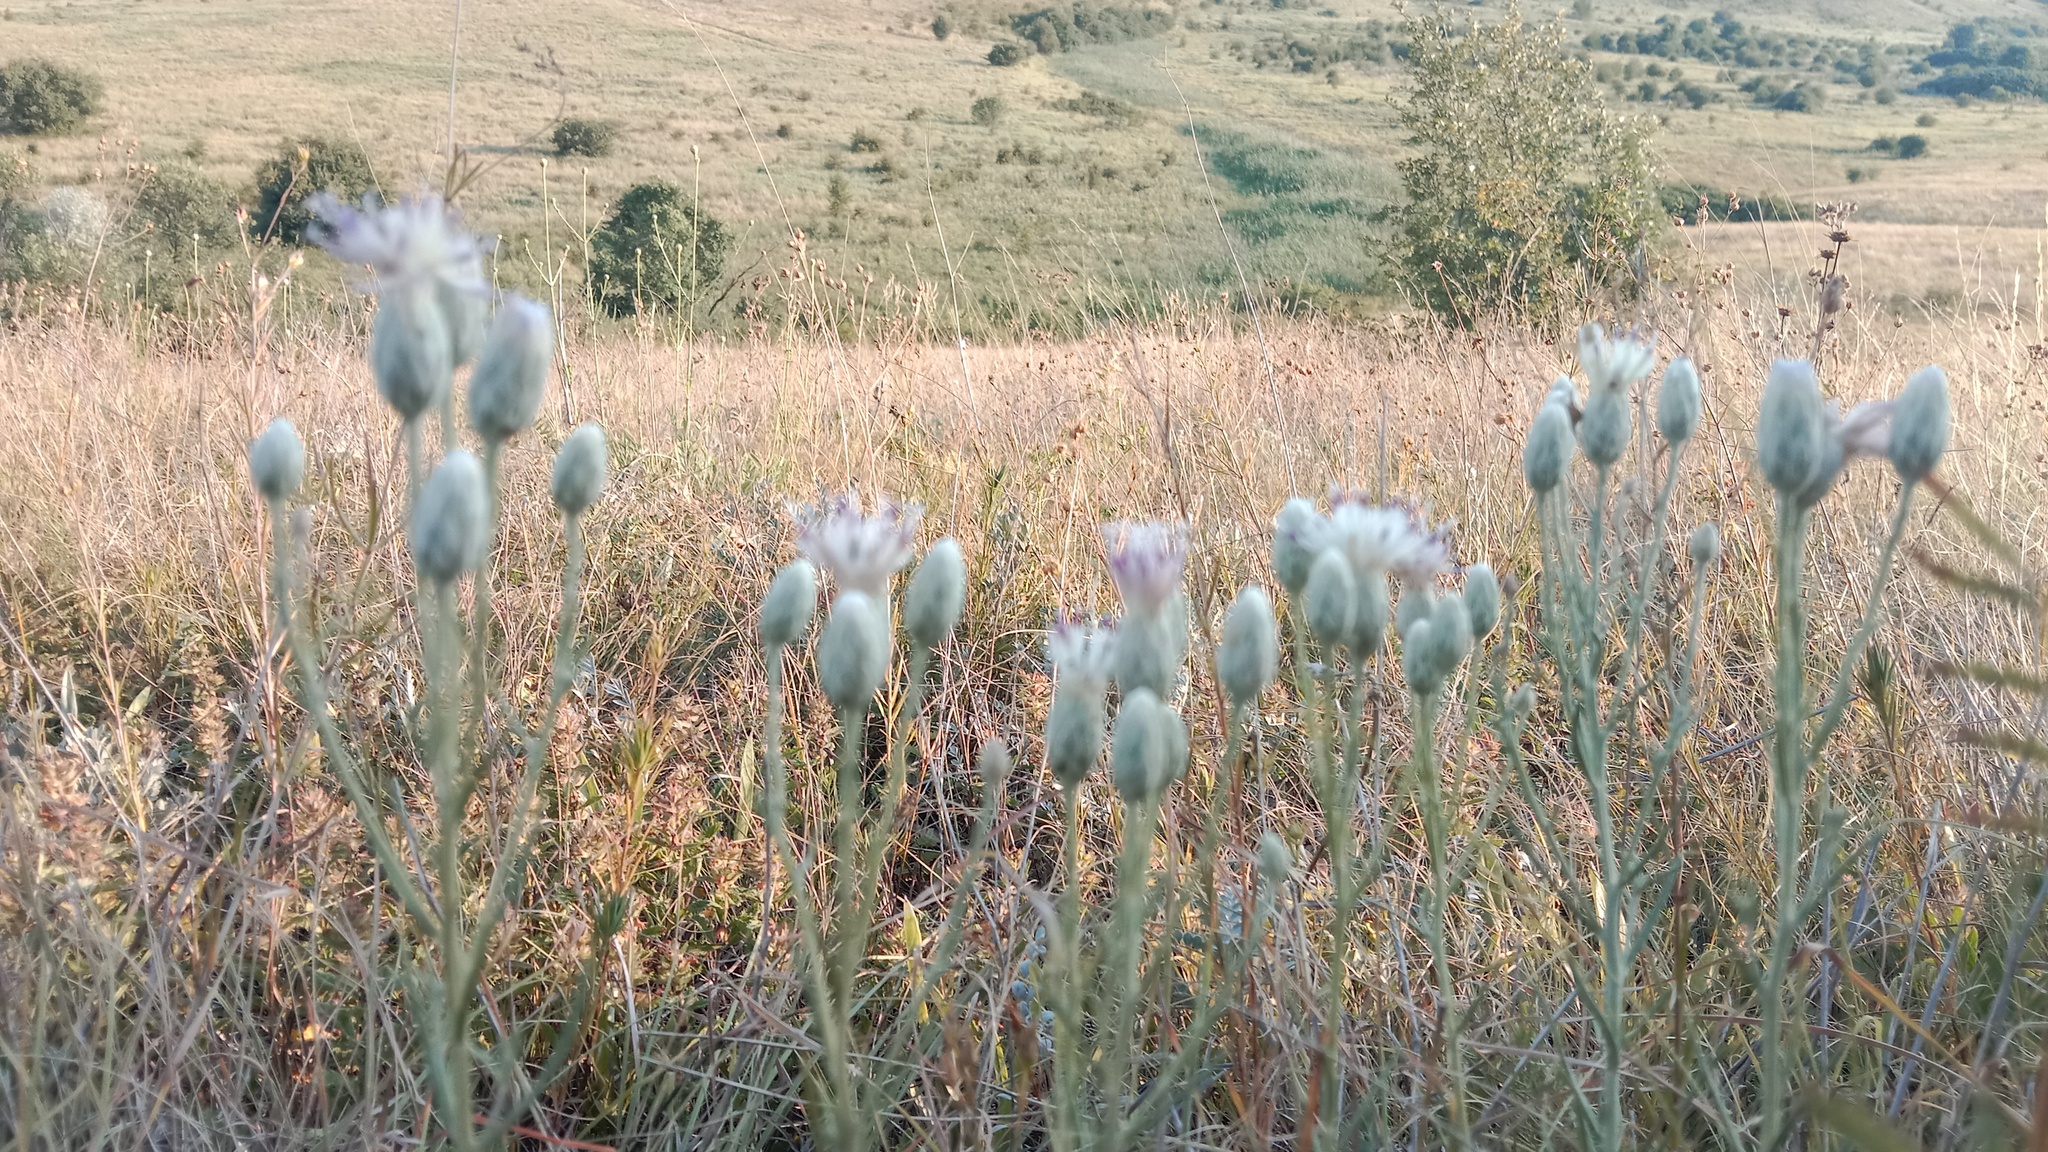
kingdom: Plantae
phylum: Tracheophyta
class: Magnoliopsida
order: Asterales
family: Asteraceae
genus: Jurinea
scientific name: Jurinea stoechadifolia
